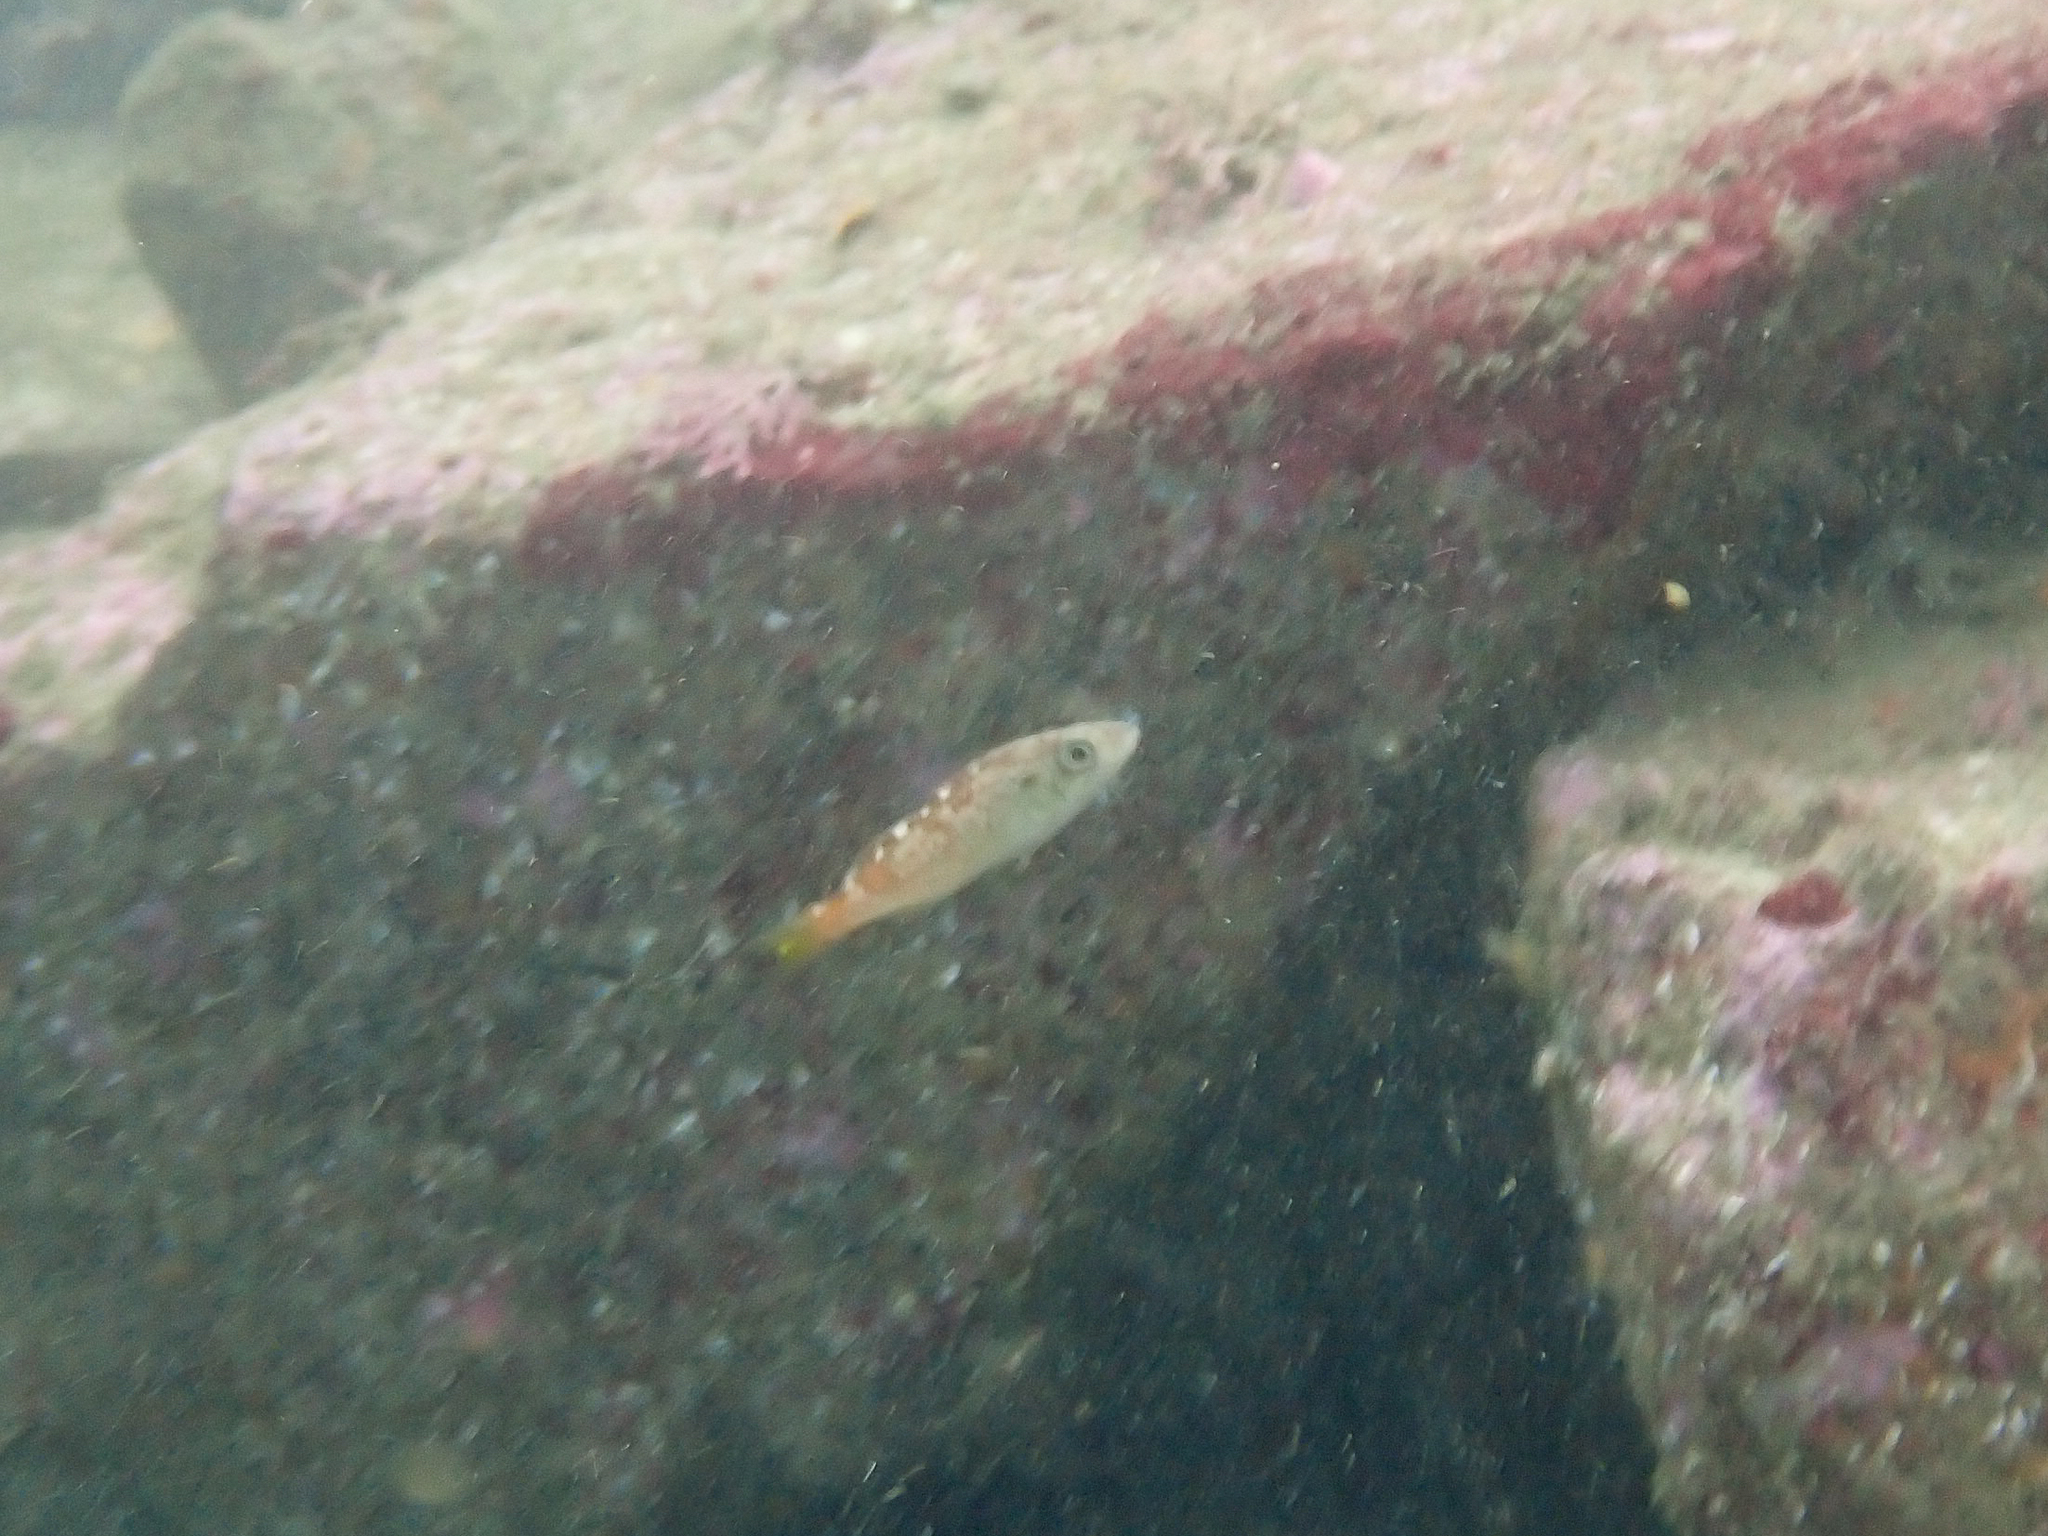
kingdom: Animalia
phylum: Chordata
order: Scorpaeniformes
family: Sebastidae
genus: Sebastes
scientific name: Sebastes serranoides
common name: Olive rockfish
